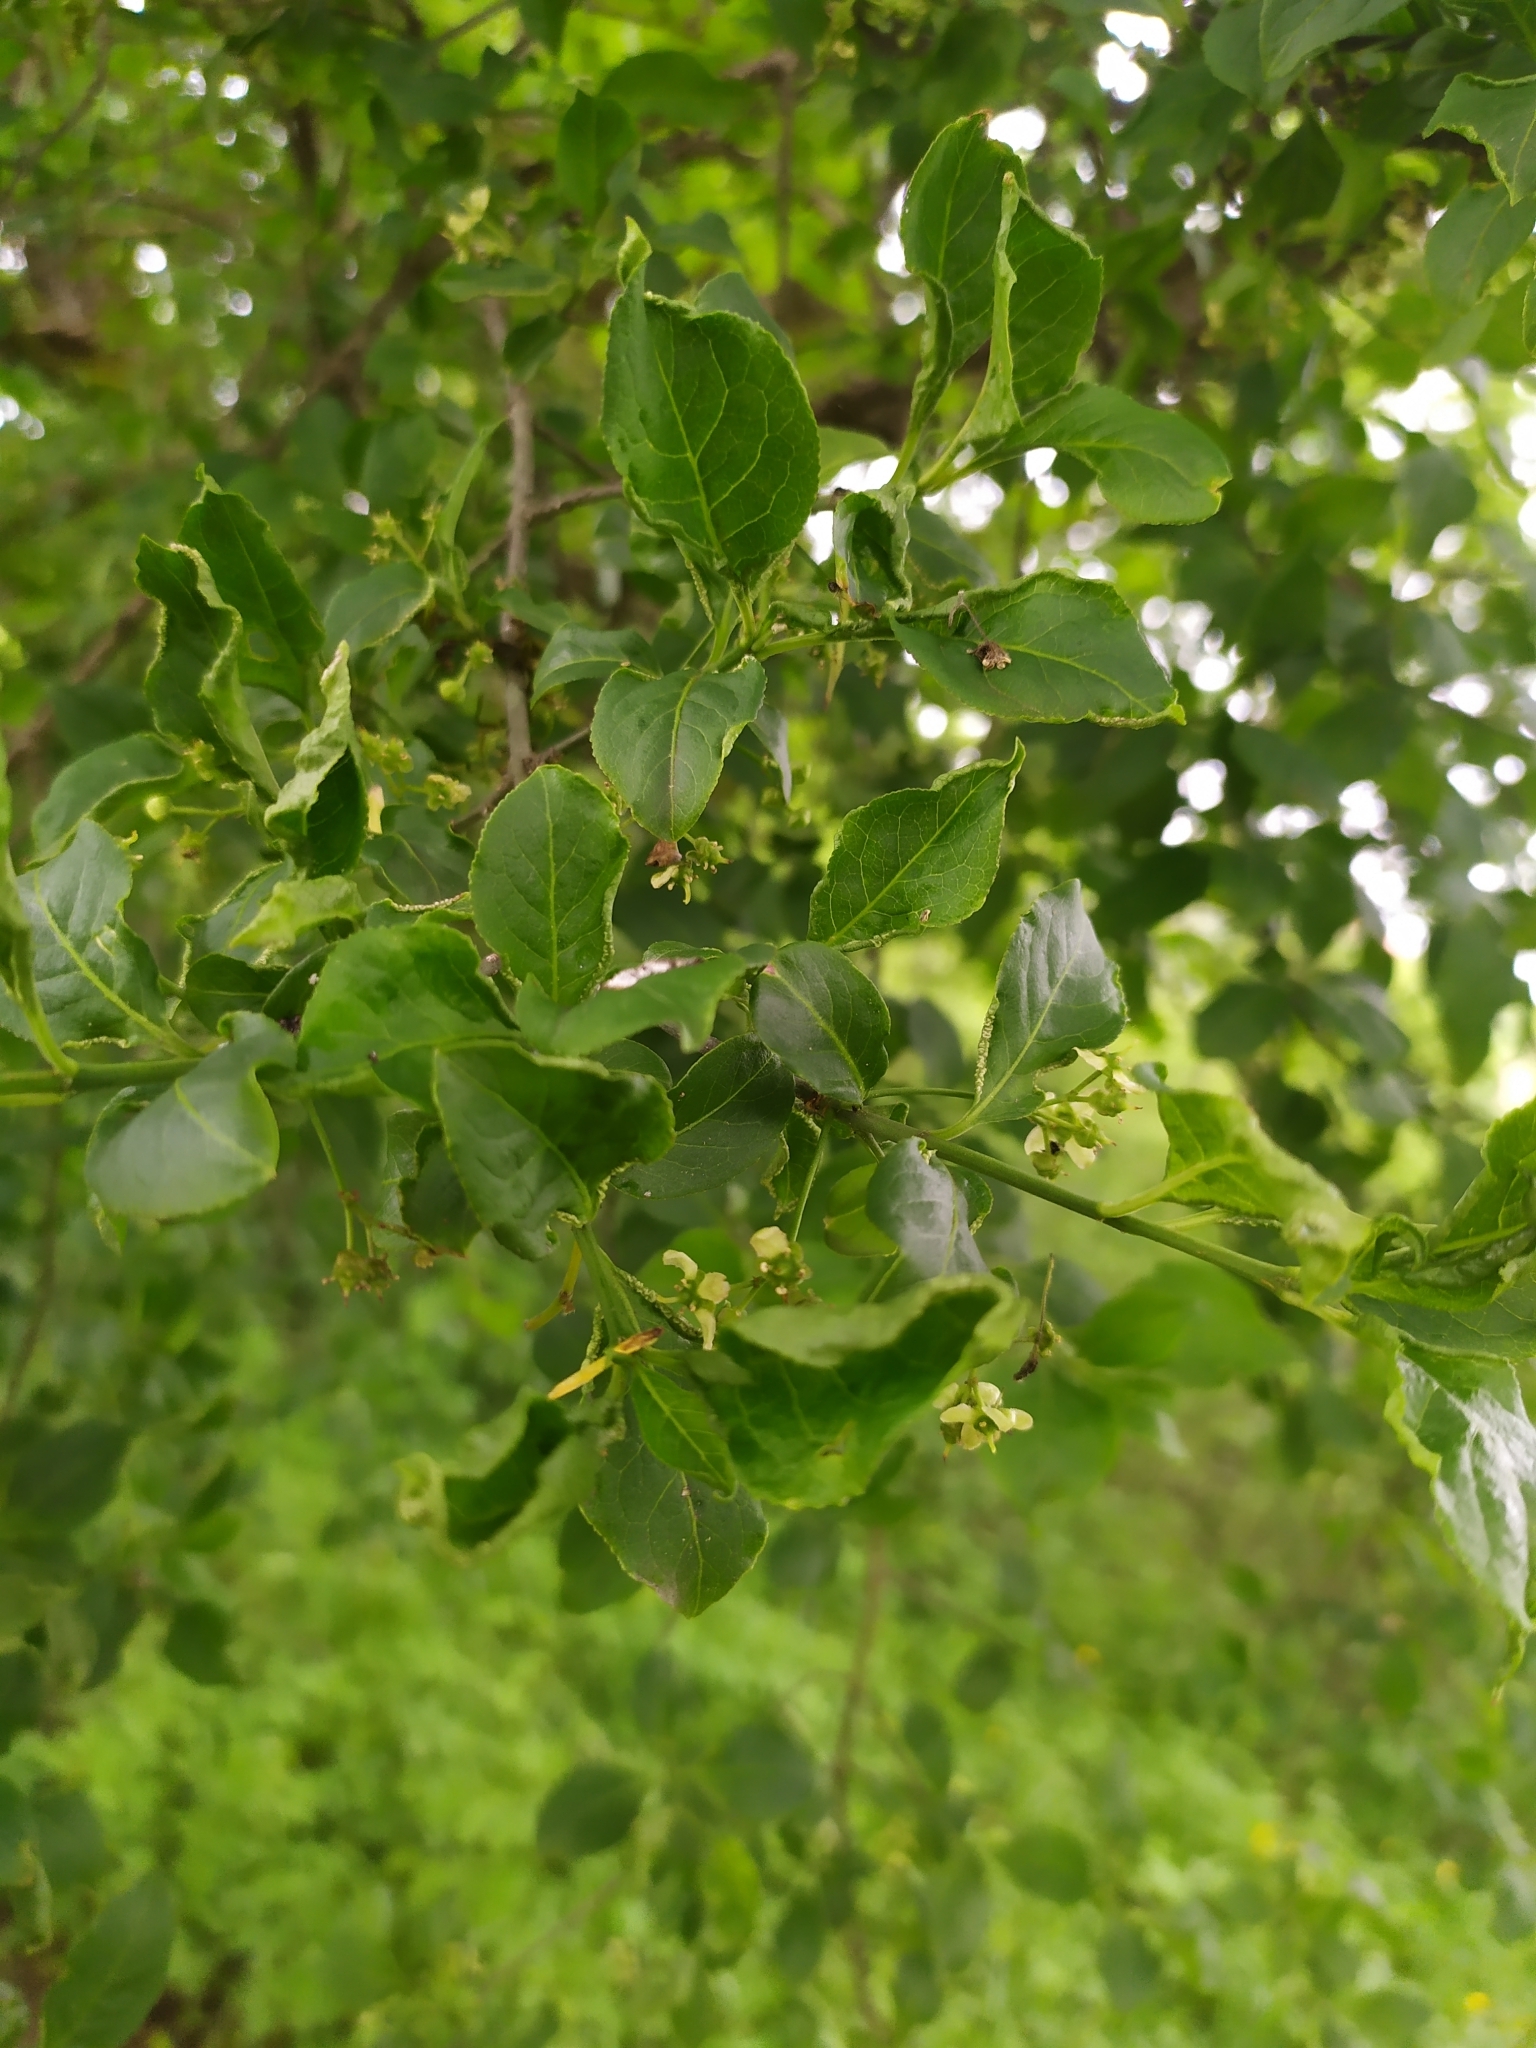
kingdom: Plantae
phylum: Tracheophyta
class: Magnoliopsida
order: Celastrales
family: Celastraceae
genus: Euonymus
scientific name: Euonymus europaeus
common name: Spindle
